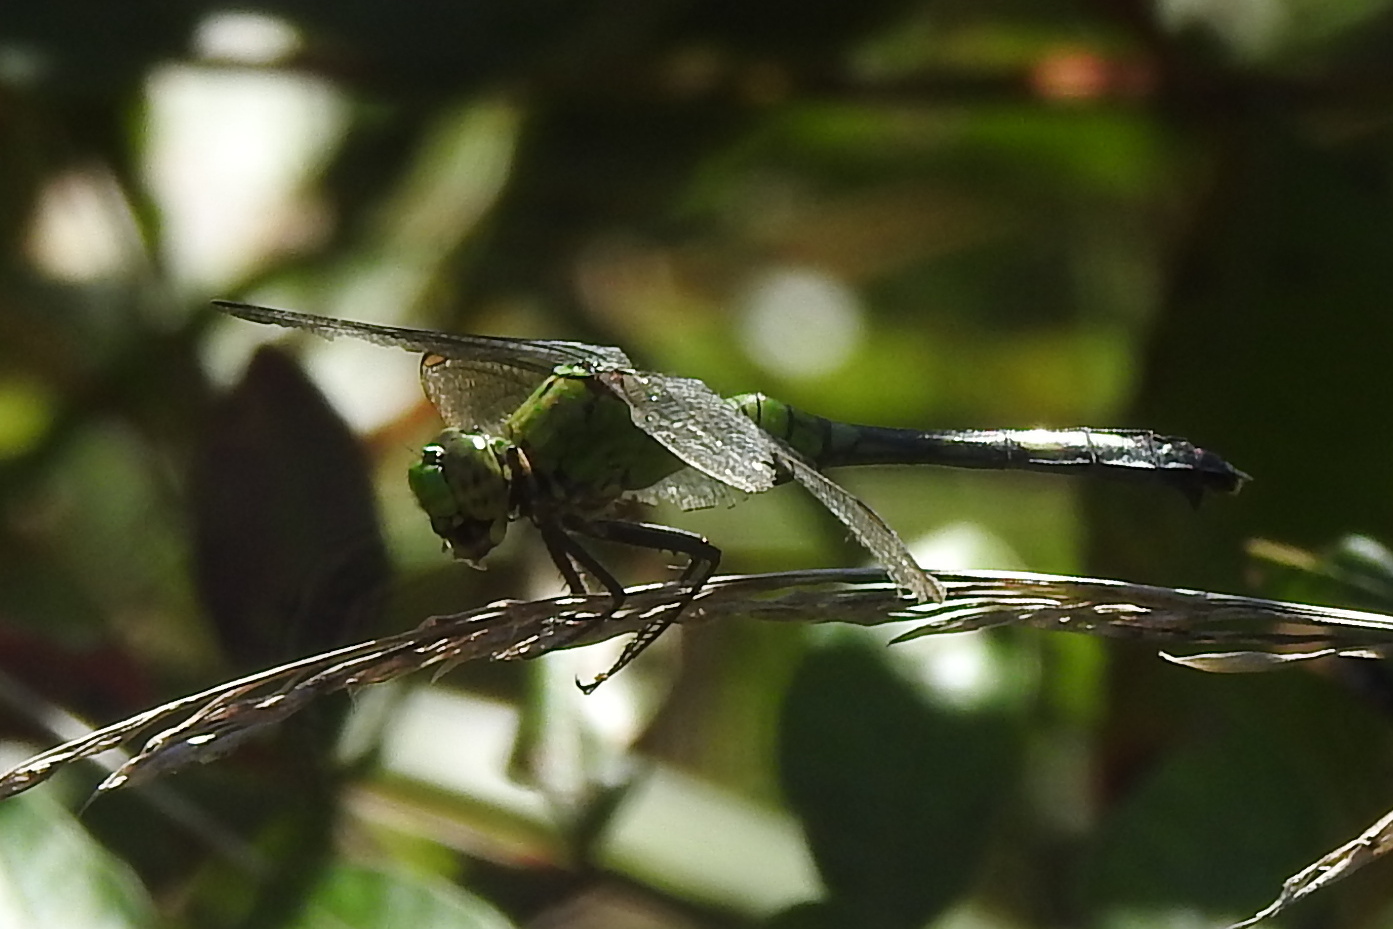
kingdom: Animalia
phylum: Arthropoda
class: Insecta
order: Odonata
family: Libellulidae
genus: Erythemis
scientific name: Erythemis simplicicollis
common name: Eastern pondhawk
